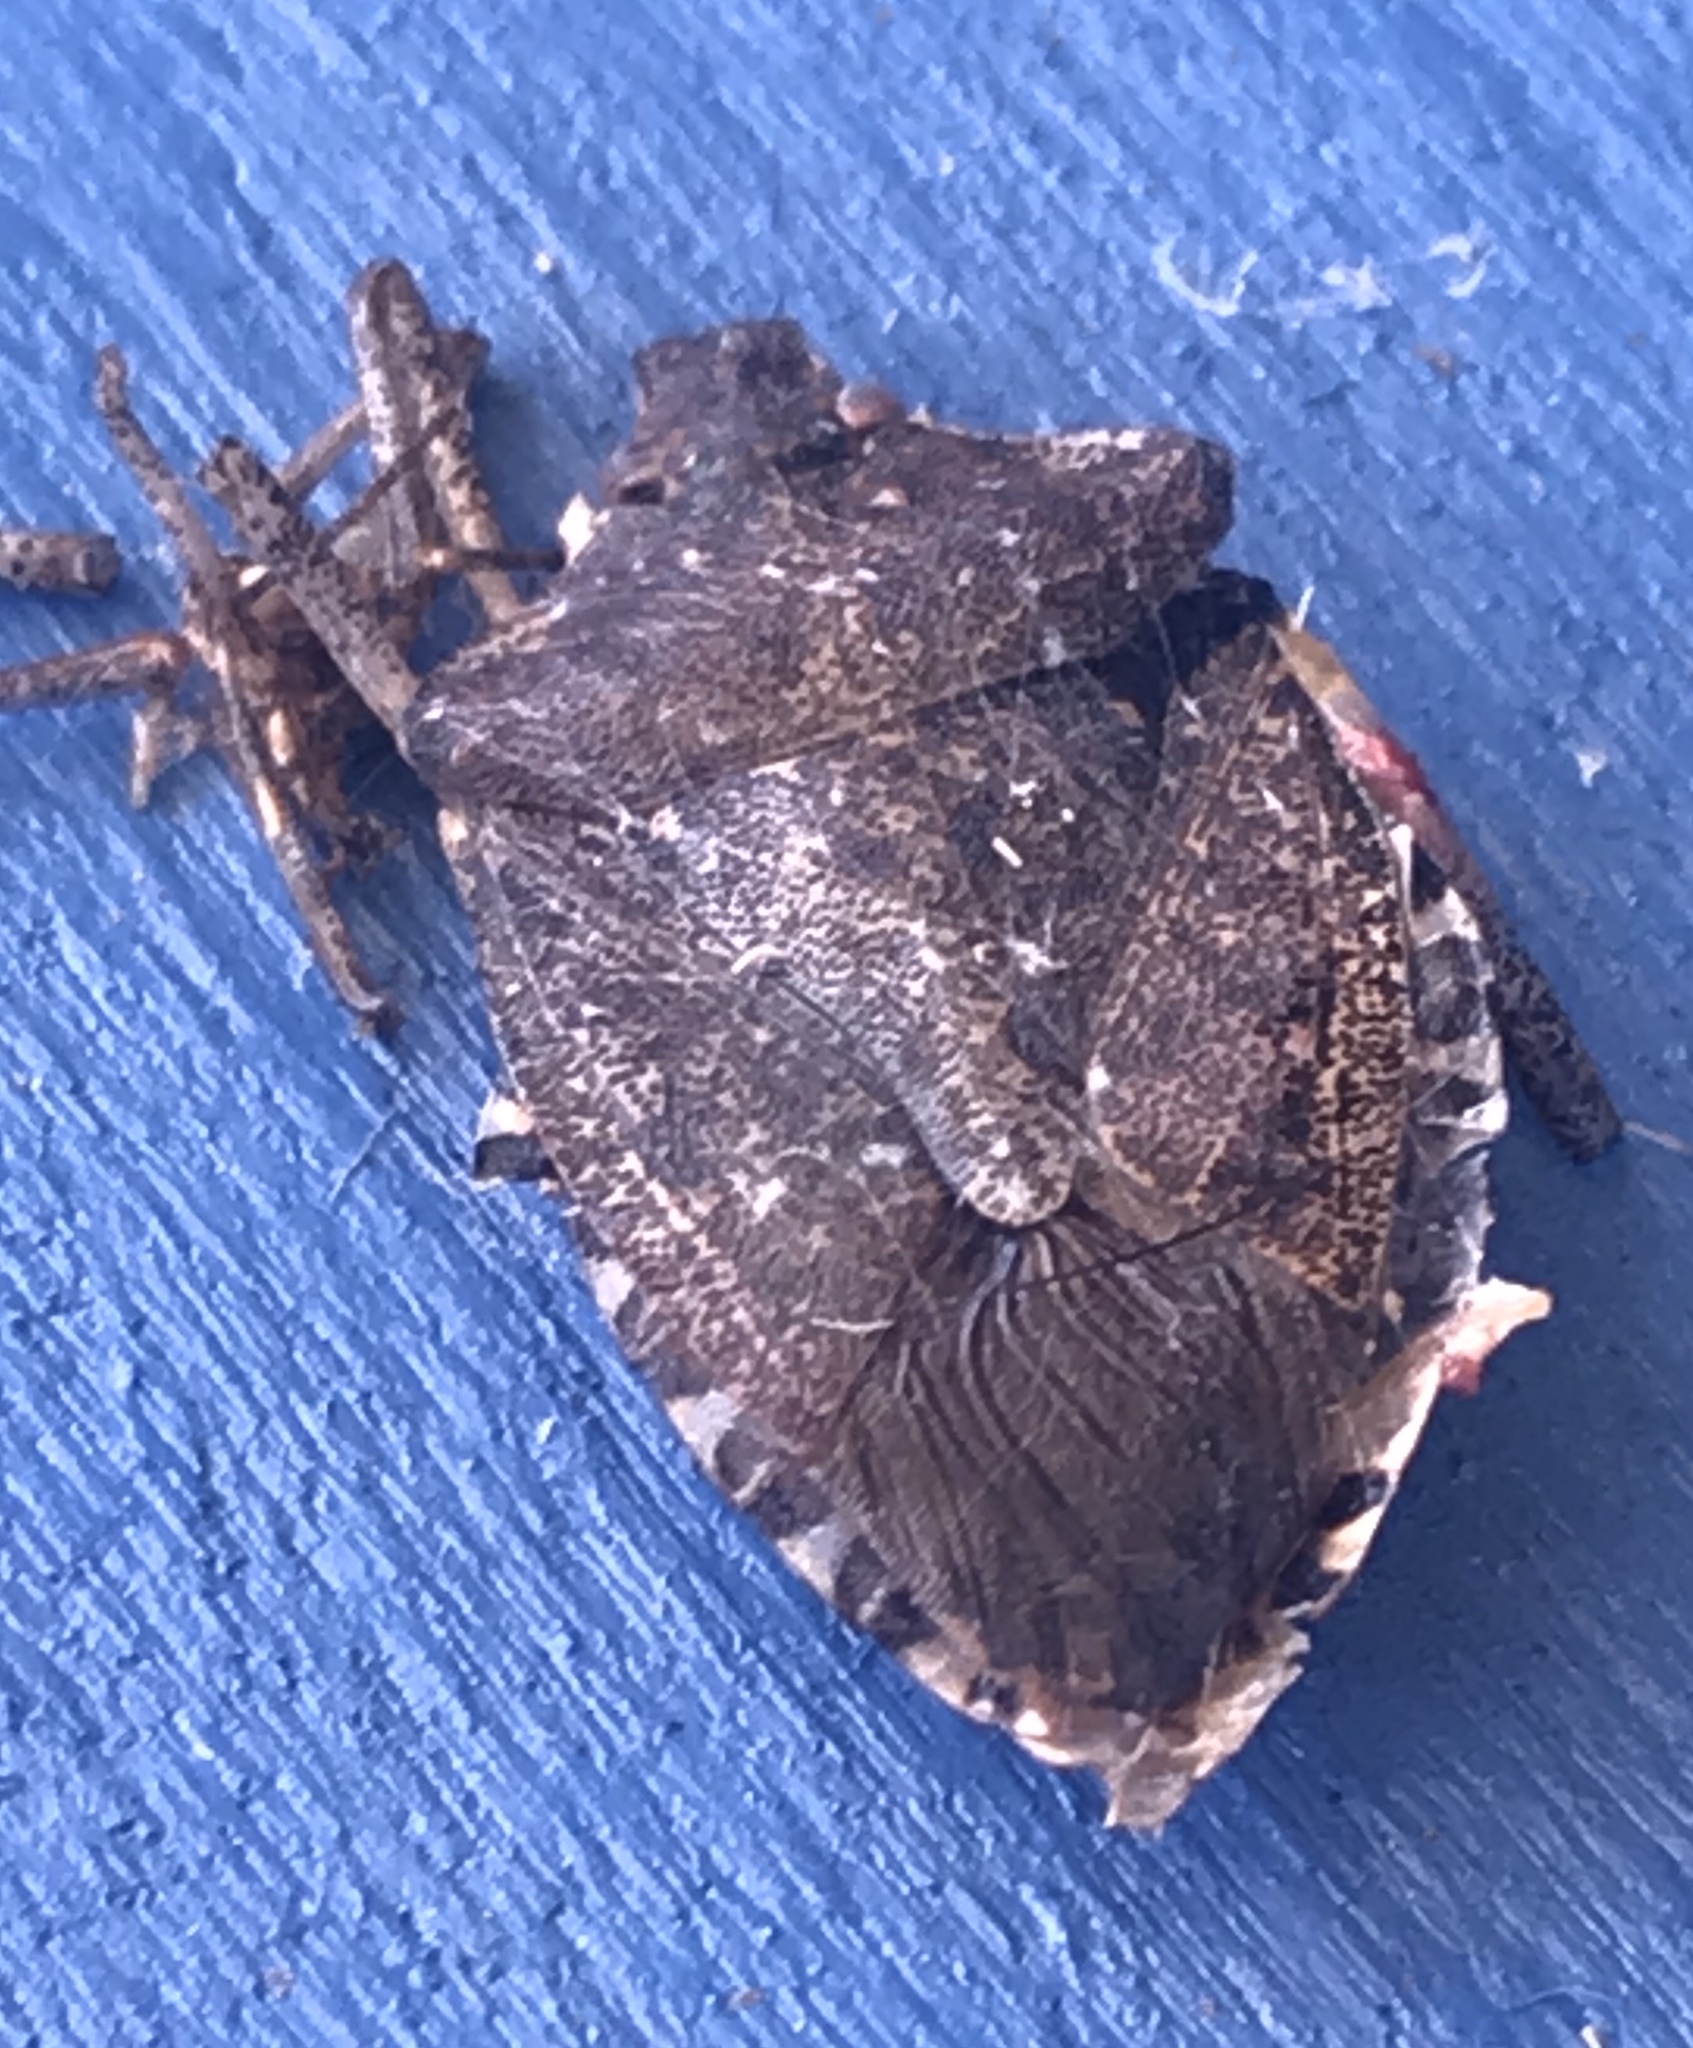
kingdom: Animalia
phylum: Arthropoda
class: Insecta
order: Hemiptera
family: Pentatomidae
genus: Halyomorpha
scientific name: Halyomorpha halys
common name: Brown marmorated stink bug
